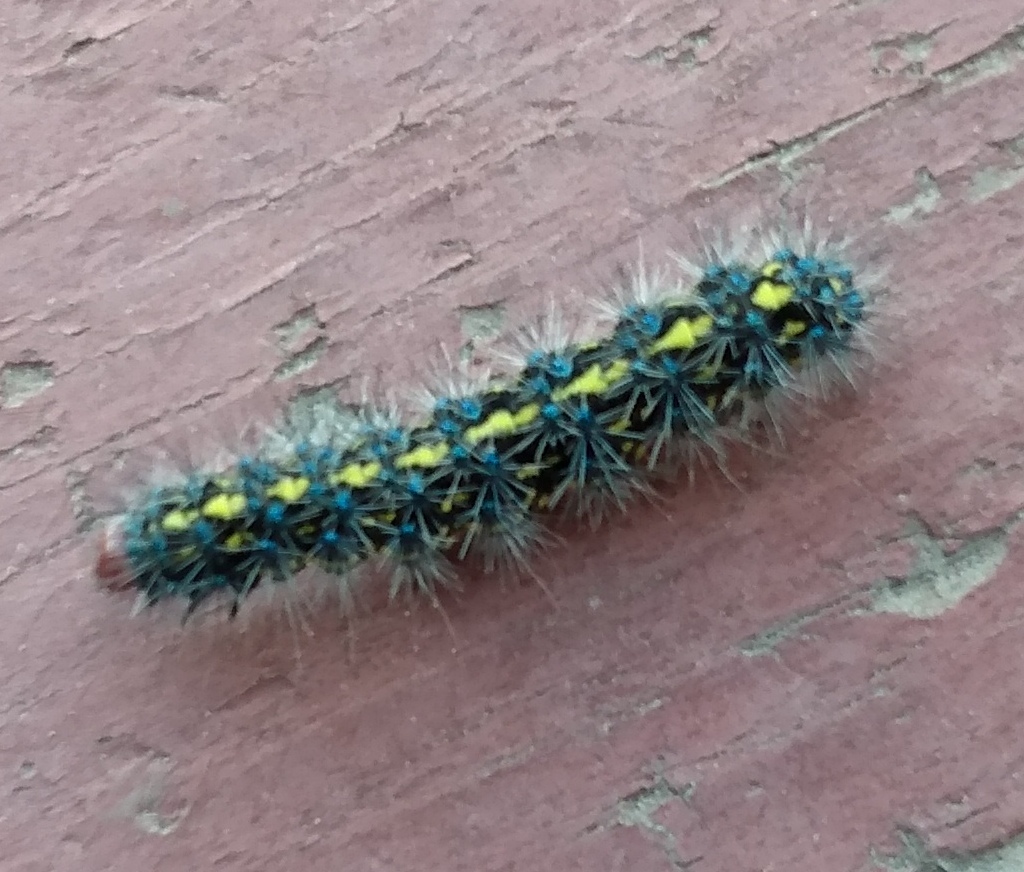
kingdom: Animalia
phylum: Arthropoda
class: Insecta
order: Lepidoptera
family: Erebidae
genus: Gnophaela
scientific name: Gnophaela vermiculata
